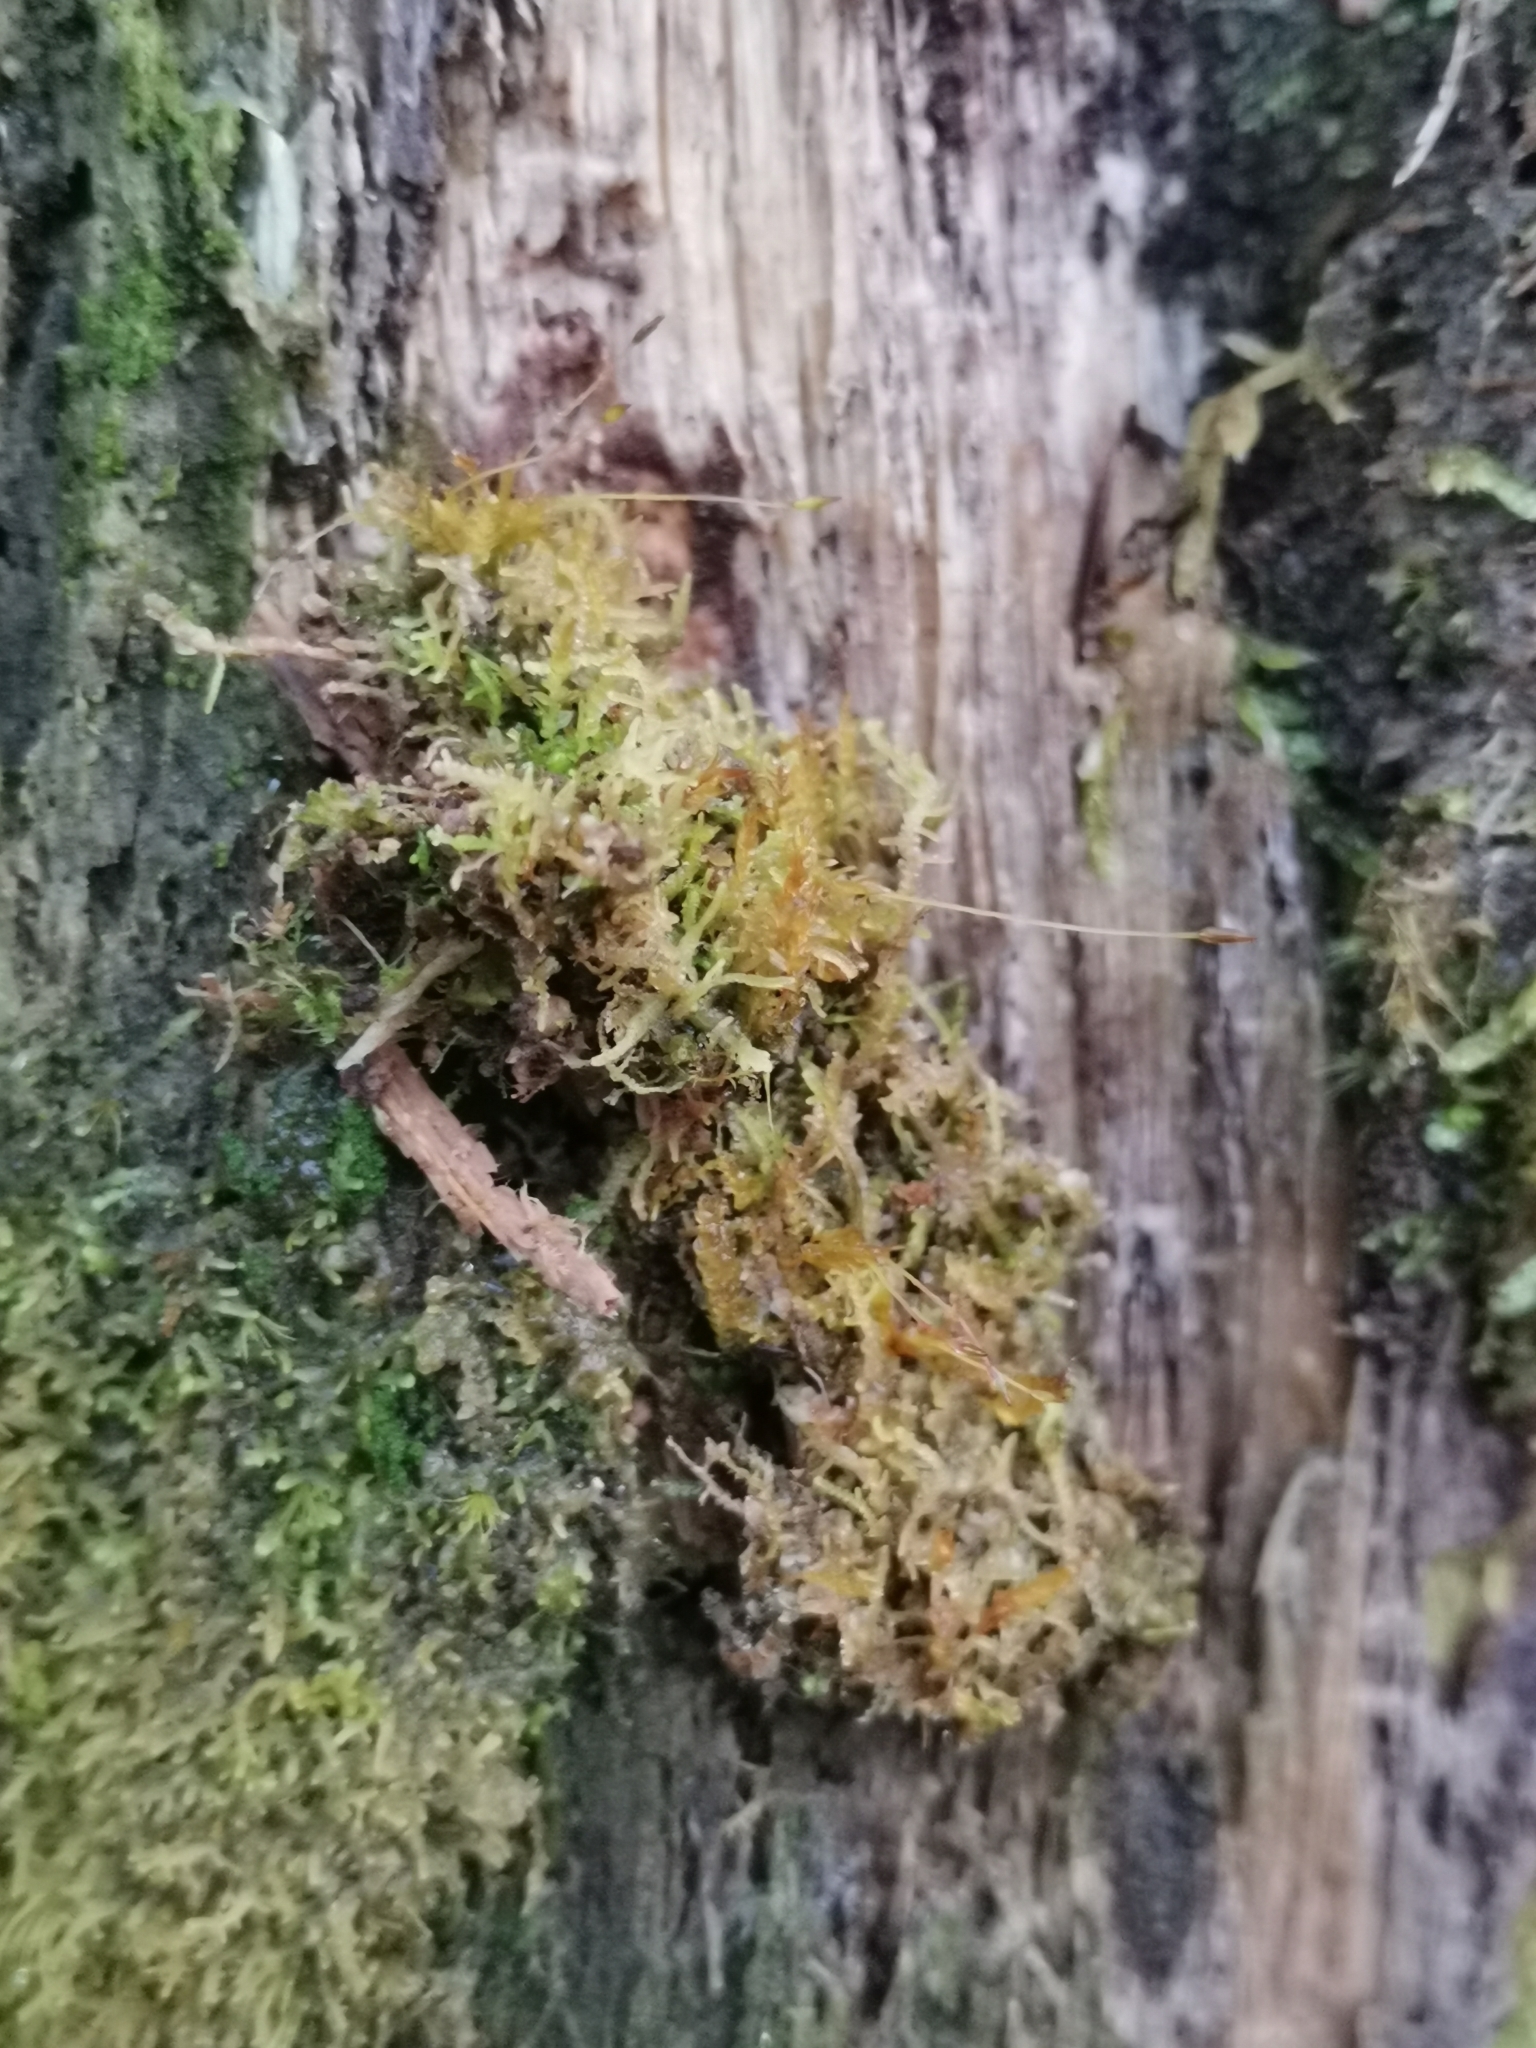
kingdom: Plantae
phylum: Marchantiophyta
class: Jungermanniopsida
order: Jungermanniales
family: Lepidoziaceae
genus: Lepidozia
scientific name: Lepidozia reptans
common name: Creeping fingerwort
